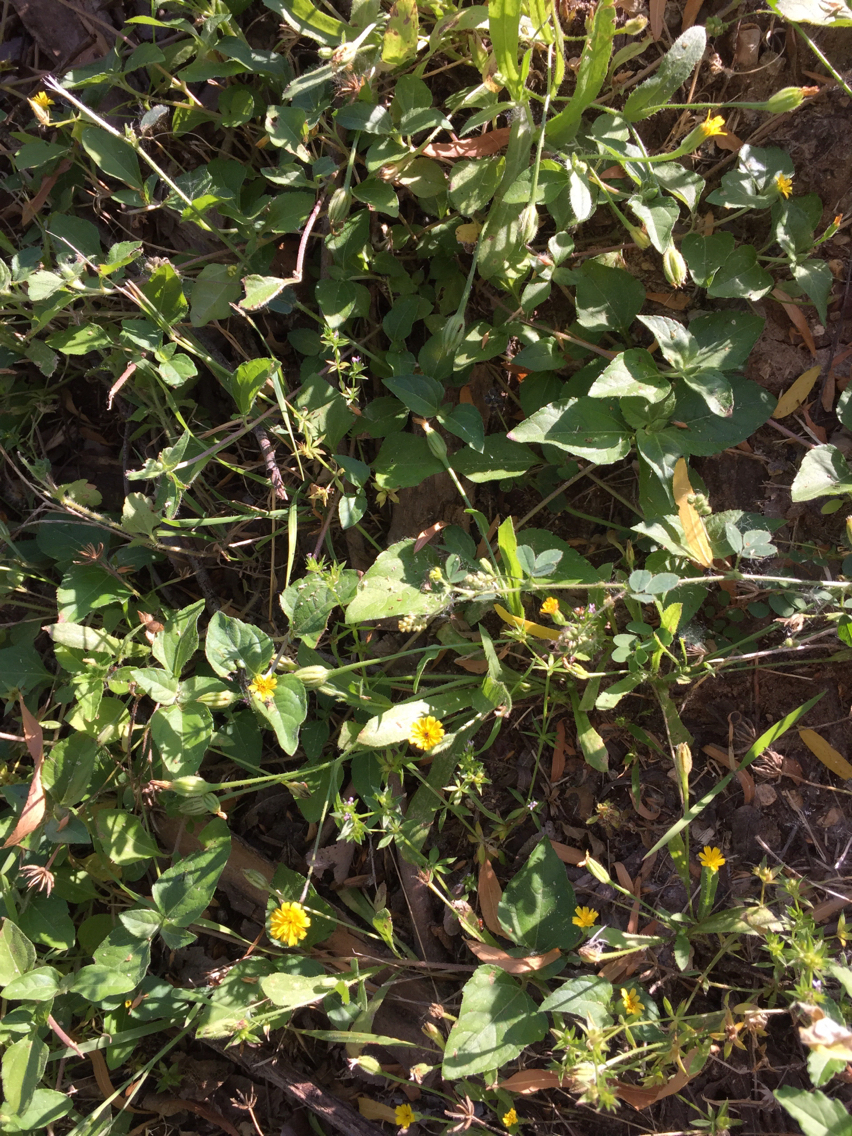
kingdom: Plantae
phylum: Tracheophyta
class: Magnoliopsida
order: Asterales
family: Asteraceae
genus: Hedypnois
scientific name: Hedypnois rhagadioloides
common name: Cretan weed
